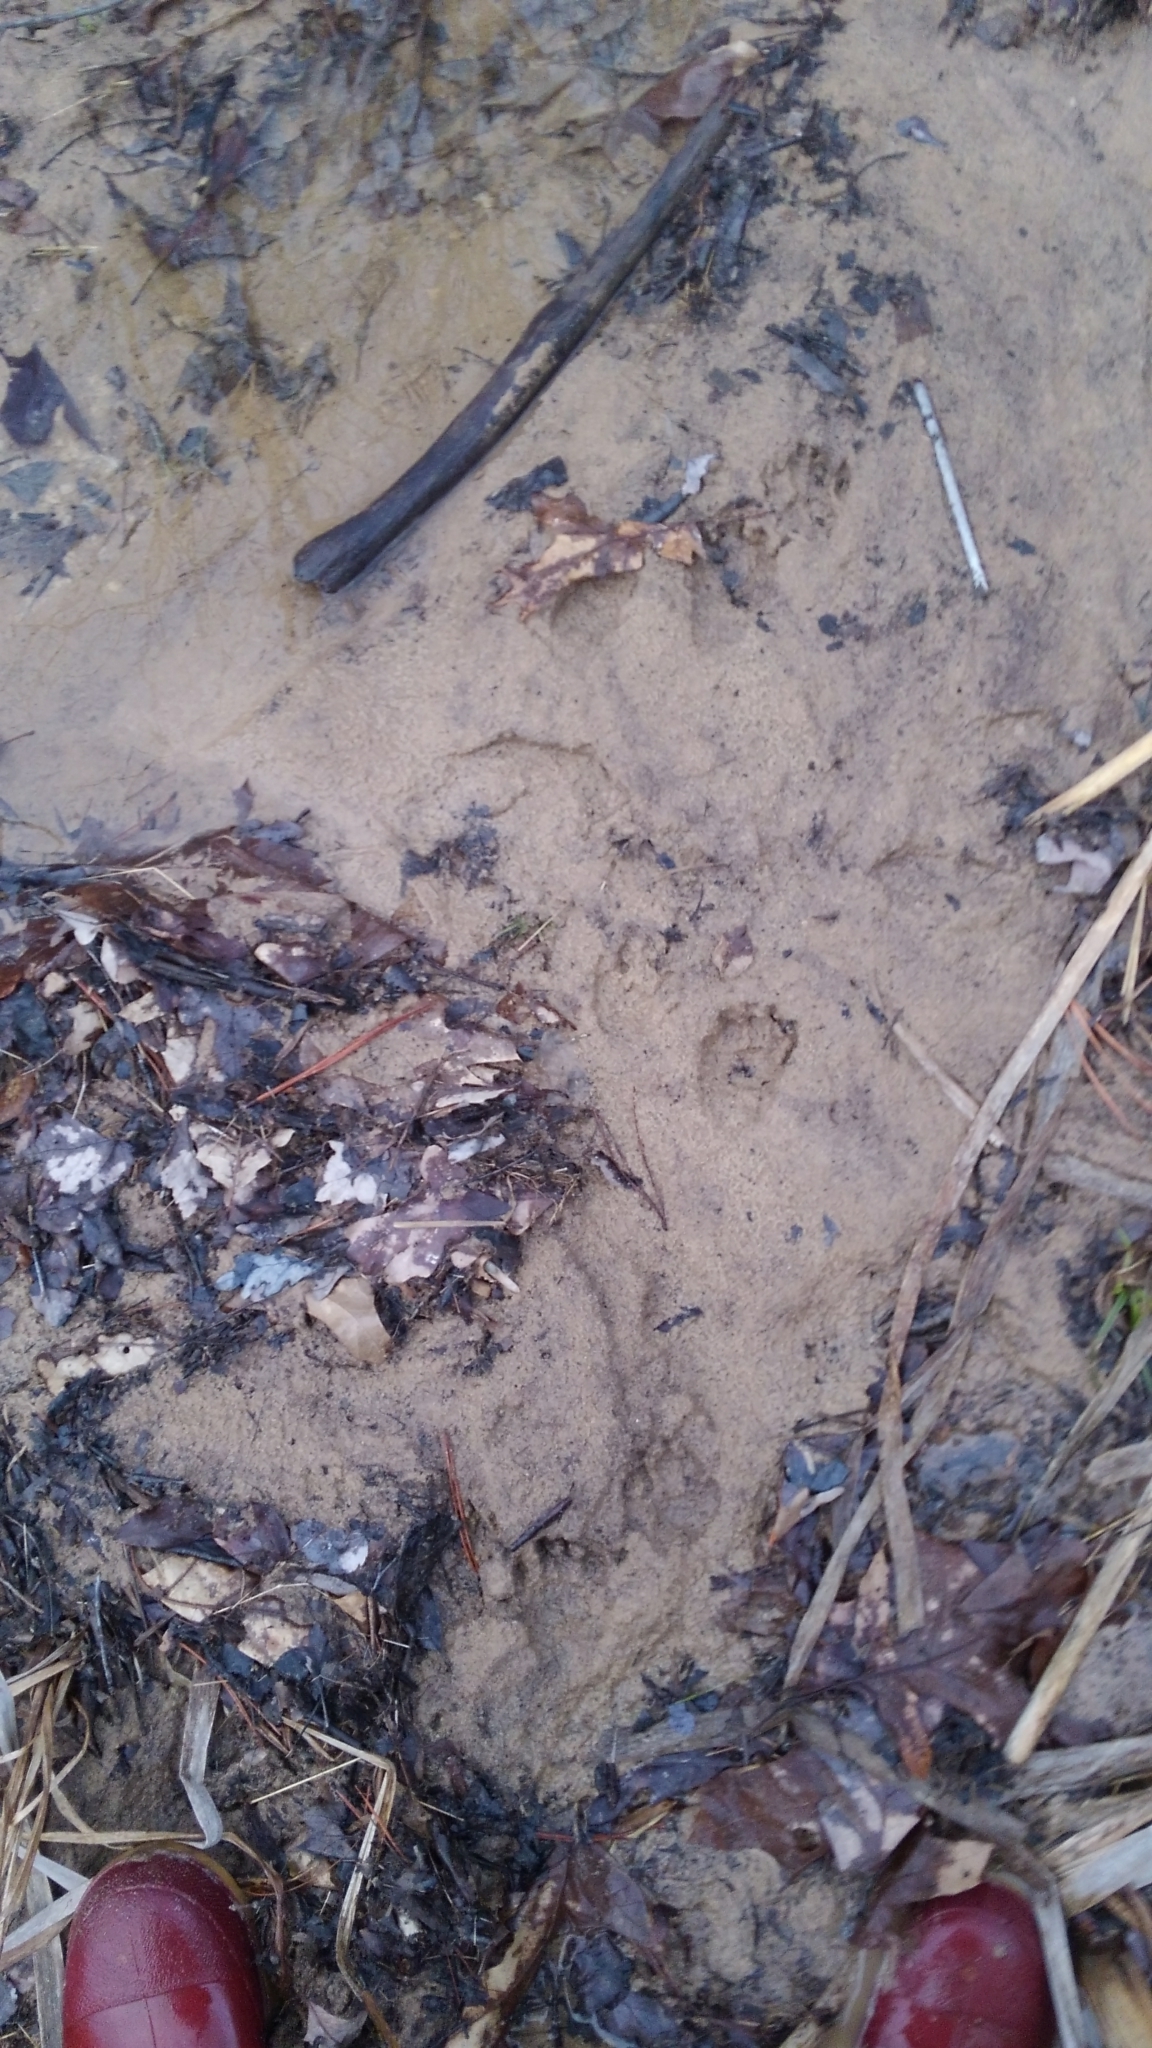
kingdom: Animalia
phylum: Chordata
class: Mammalia
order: Carnivora
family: Procyonidae
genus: Procyon
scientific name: Procyon lotor
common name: Raccoon
